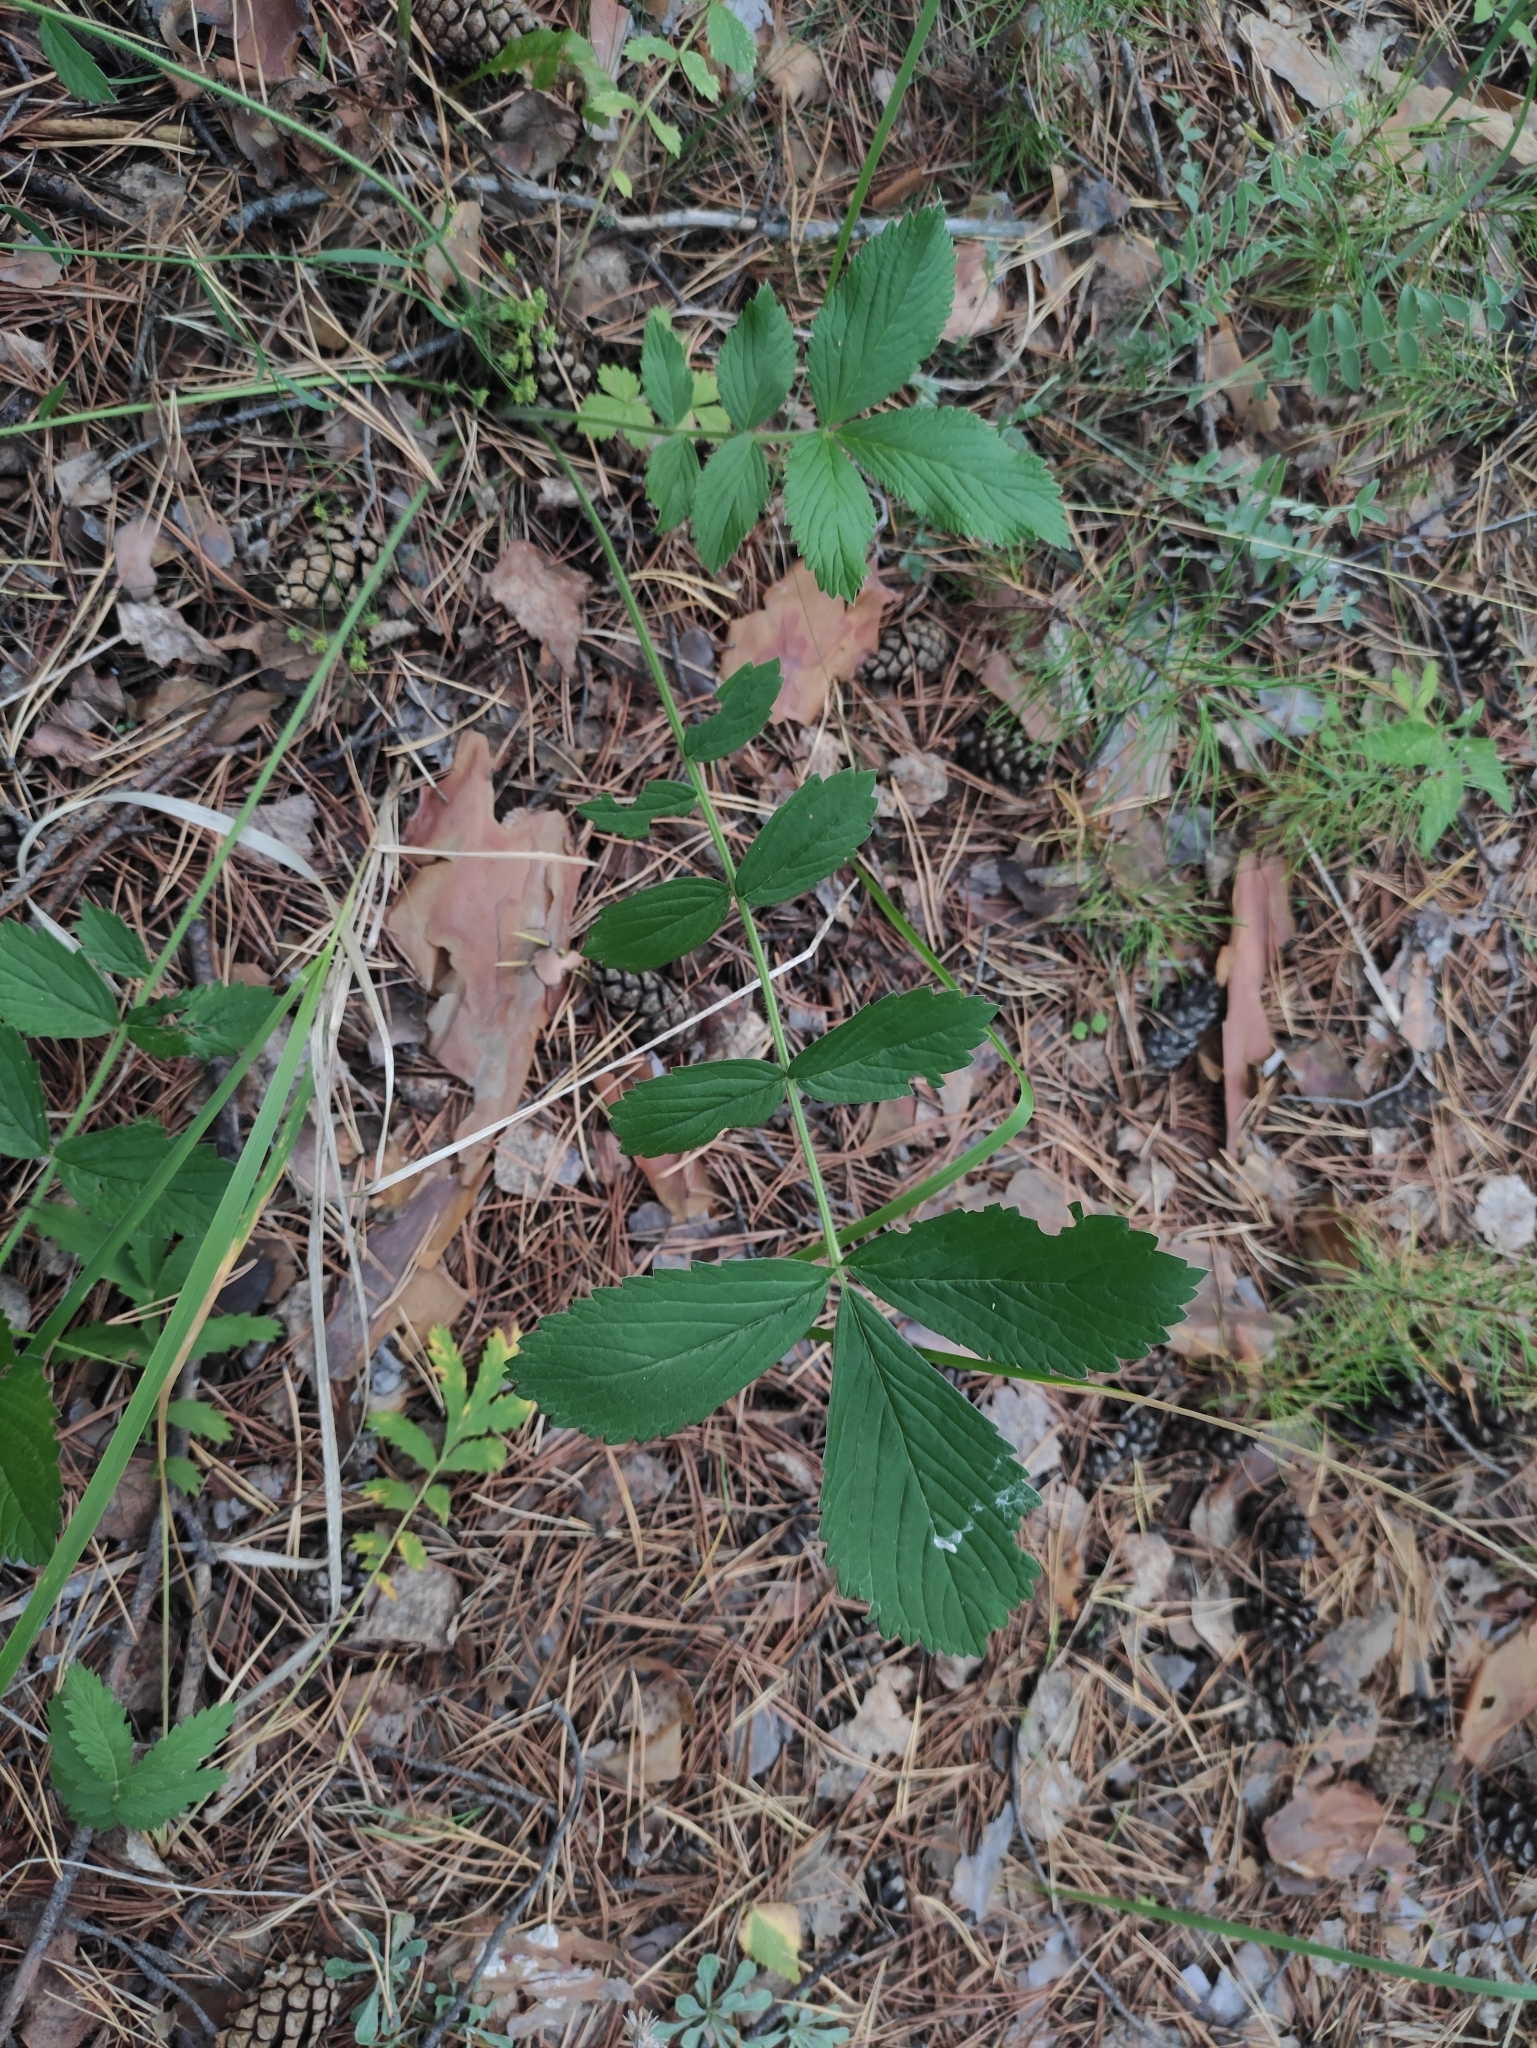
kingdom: Plantae
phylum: Tracheophyta
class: Magnoliopsida
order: Rosales
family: Rosaceae
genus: Potentilla
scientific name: Potentilla fragarioides
